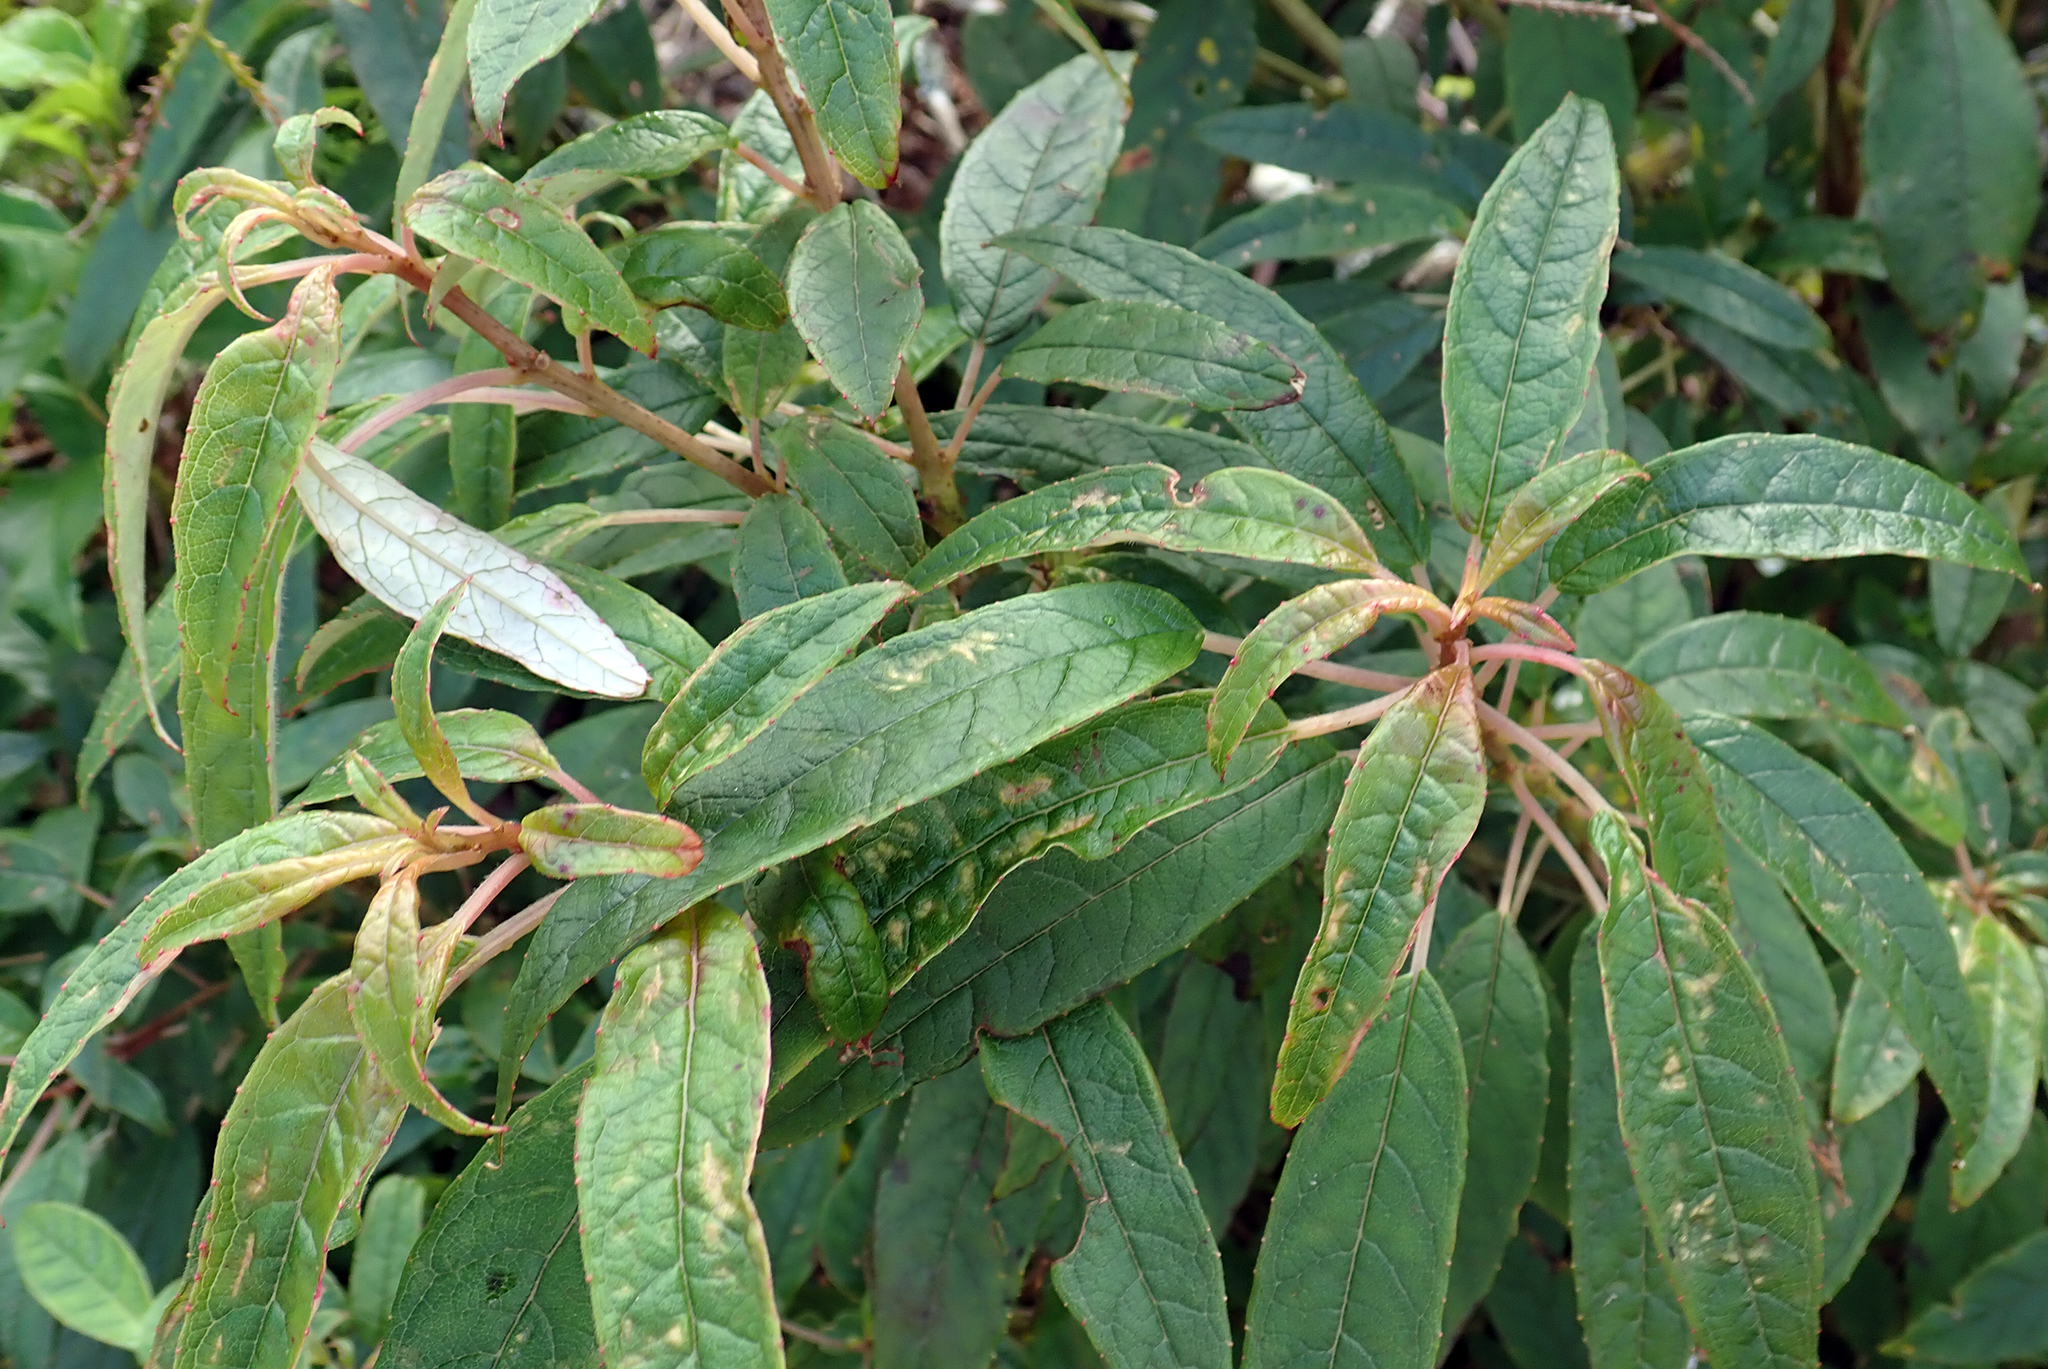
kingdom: Plantae
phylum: Tracheophyta
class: Magnoliopsida
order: Myrtales
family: Onagraceae
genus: Fuchsia
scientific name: Fuchsia excorticata
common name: Tree fuchsia
